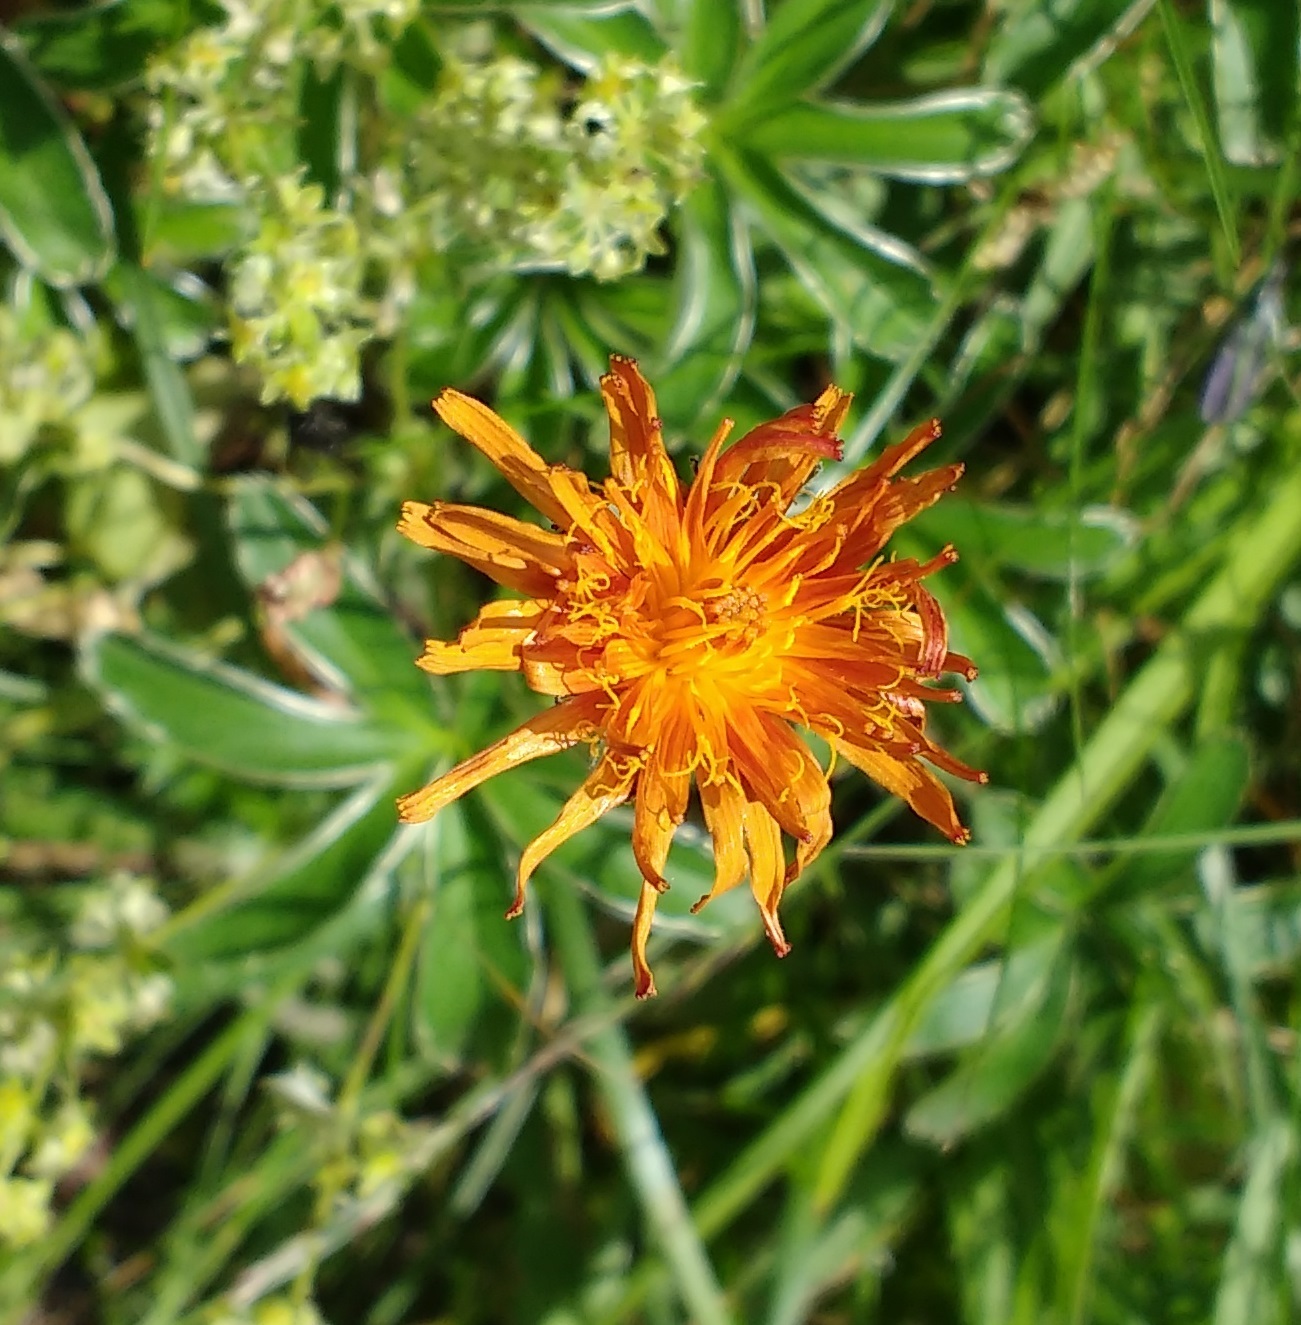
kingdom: Plantae
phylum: Tracheophyta
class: Magnoliopsida
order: Asterales
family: Asteraceae
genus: Crepis
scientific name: Crepis aurea
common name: Golden hawk's-beard
